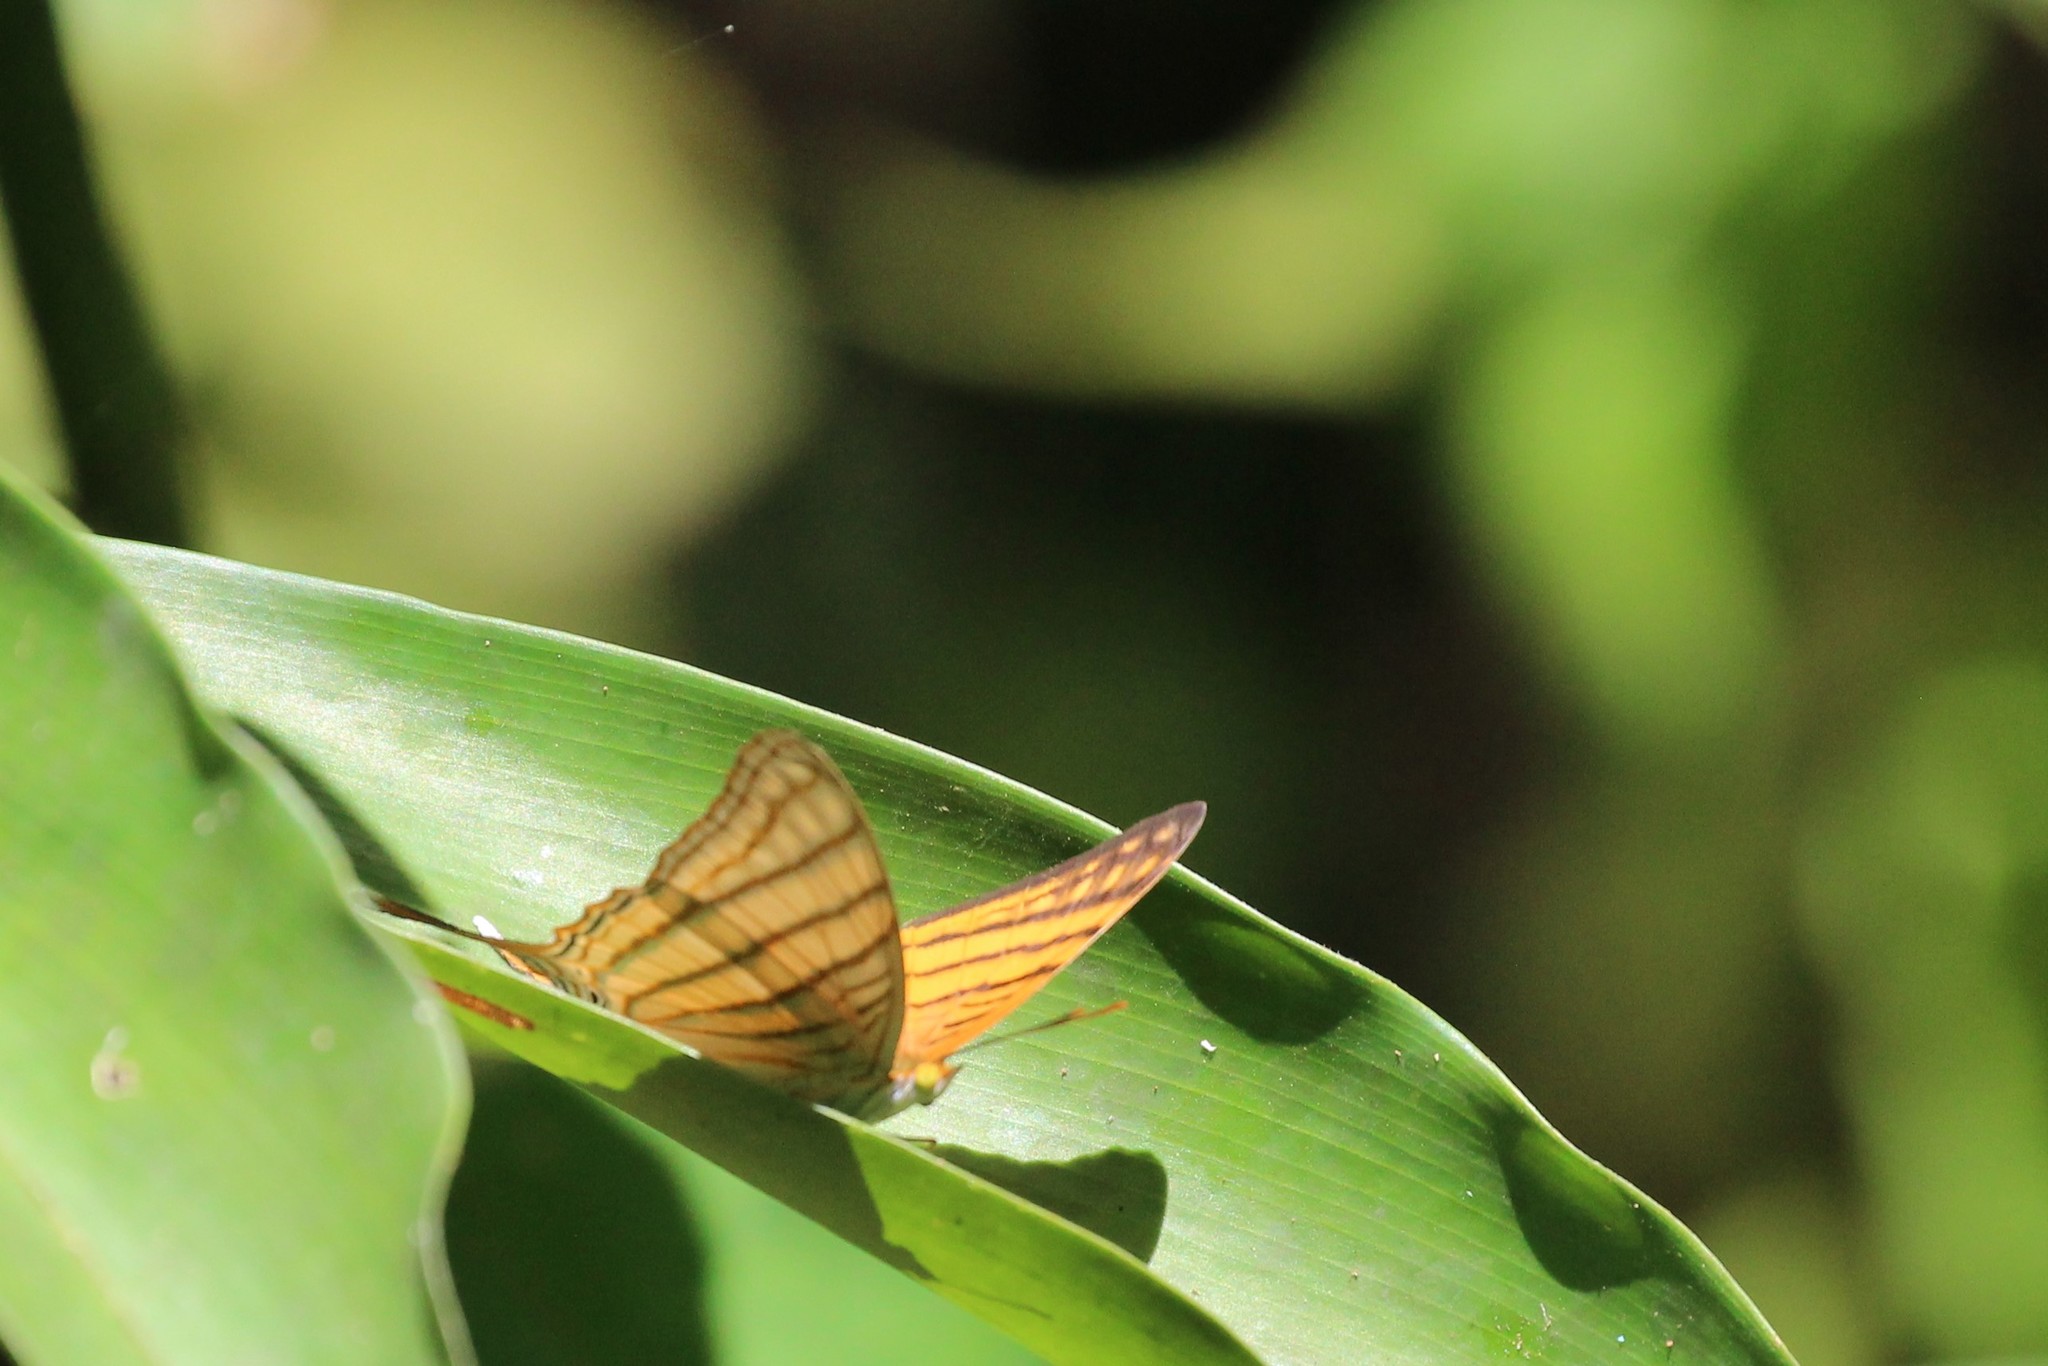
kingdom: Animalia
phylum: Arthropoda
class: Insecta
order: Lepidoptera
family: Nymphalidae
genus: Marpesia
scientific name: Marpesia berania
